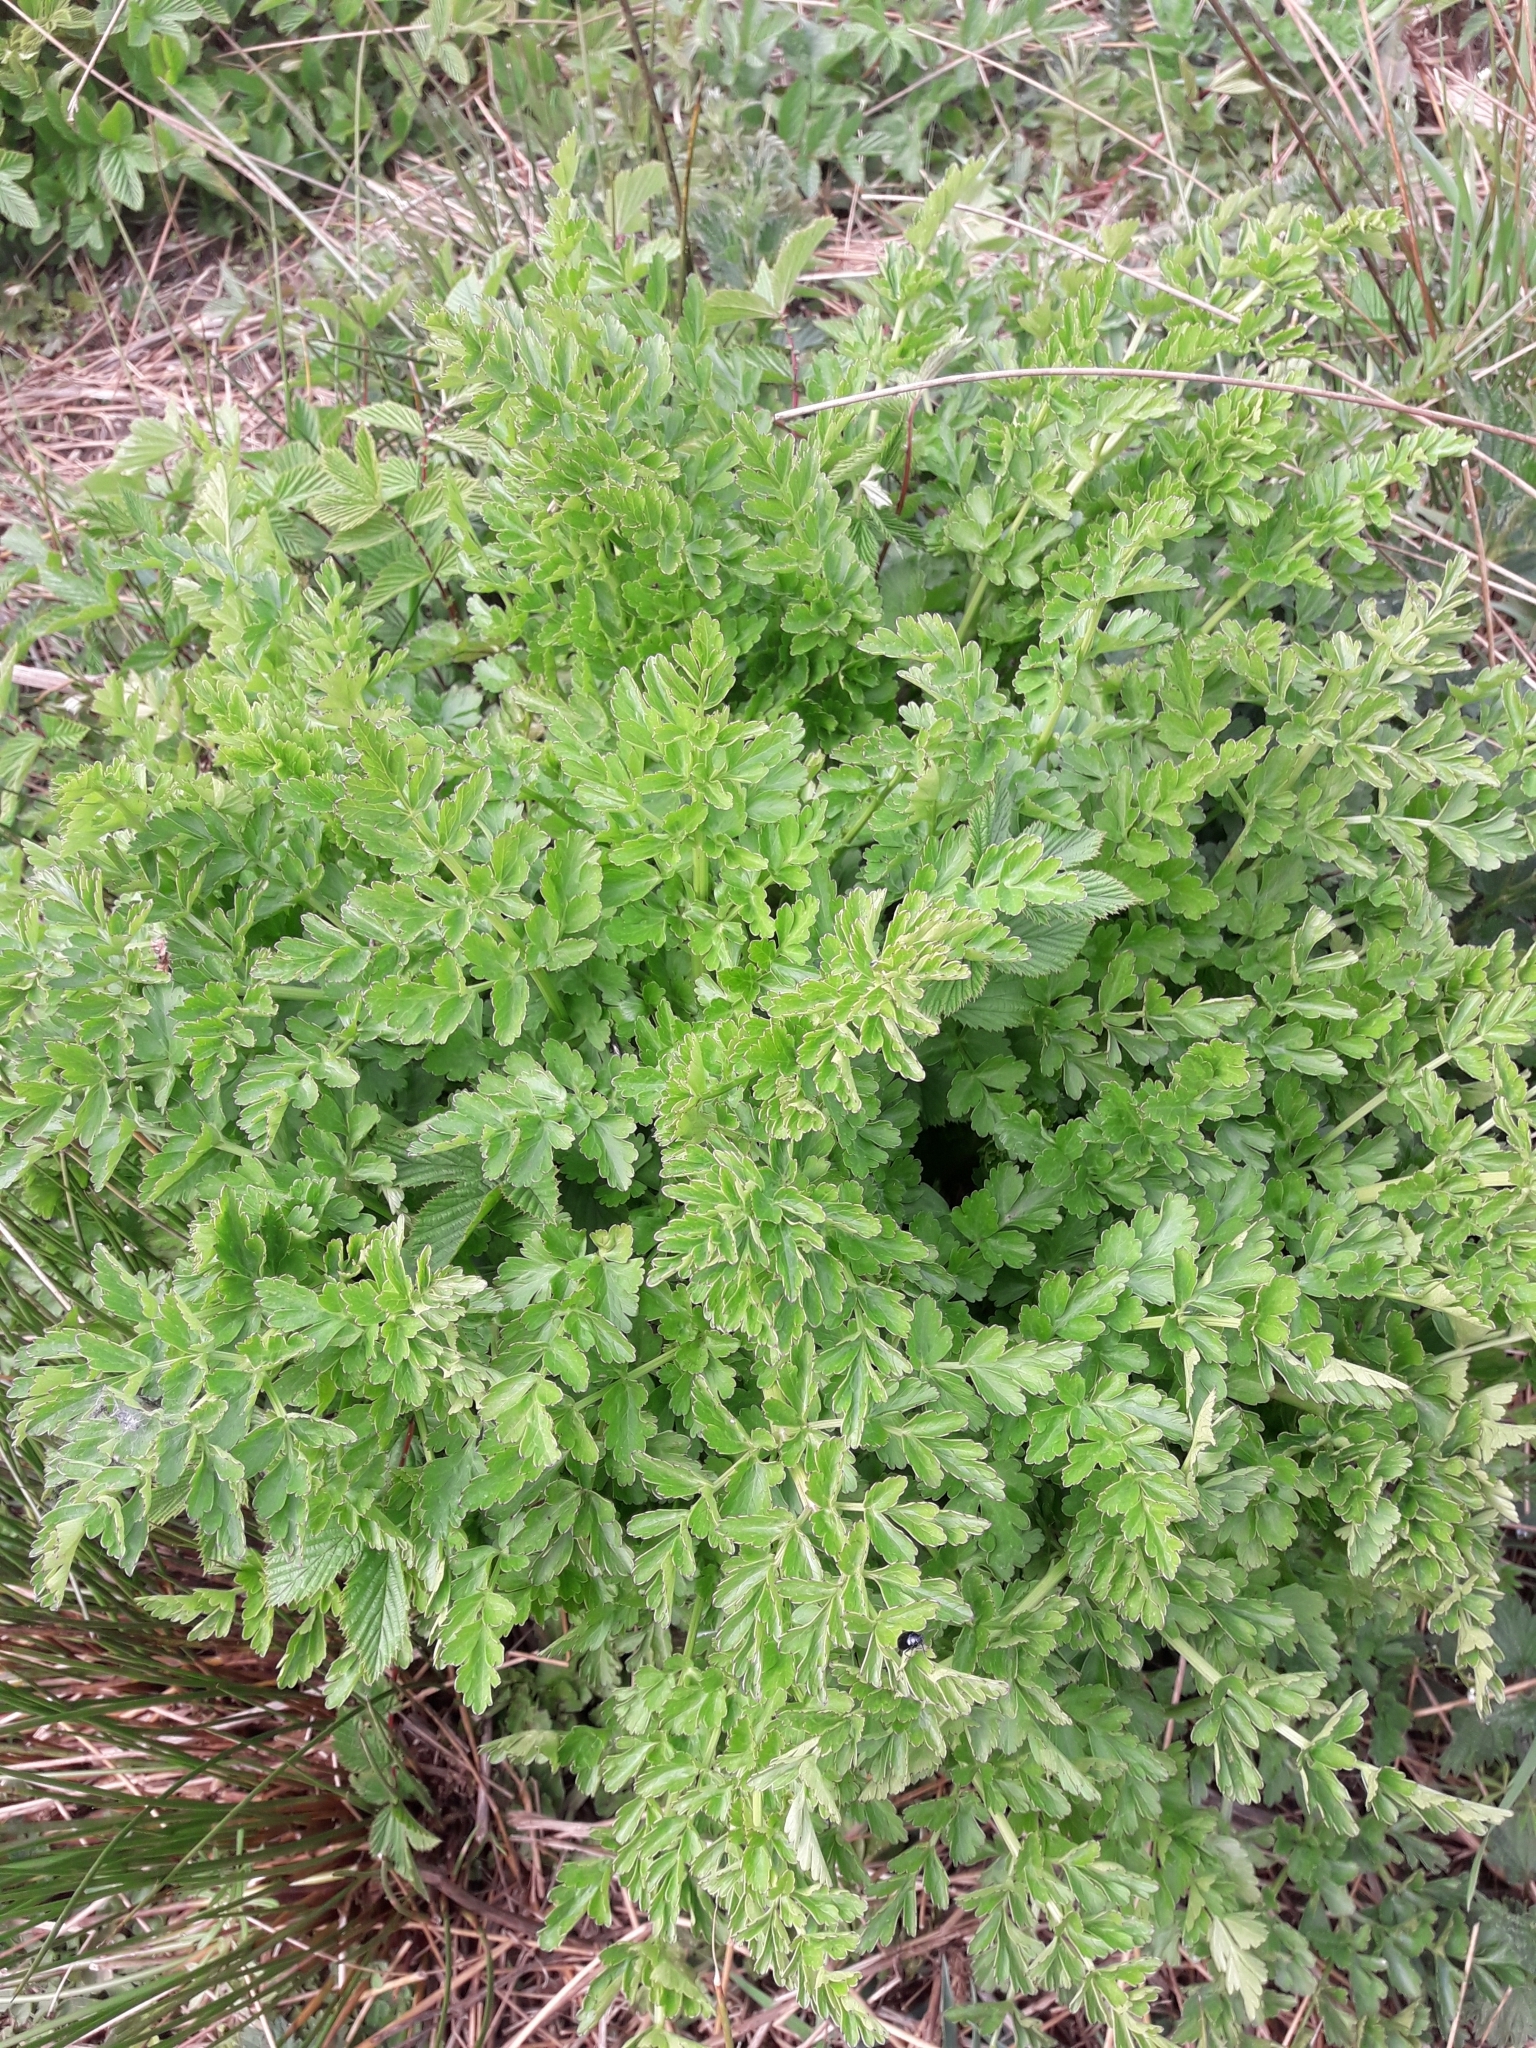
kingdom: Plantae
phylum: Tracheophyta
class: Magnoliopsida
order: Apiales
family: Apiaceae
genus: Oenanthe
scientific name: Oenanthe crocata
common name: Hemlock water-dropwort
